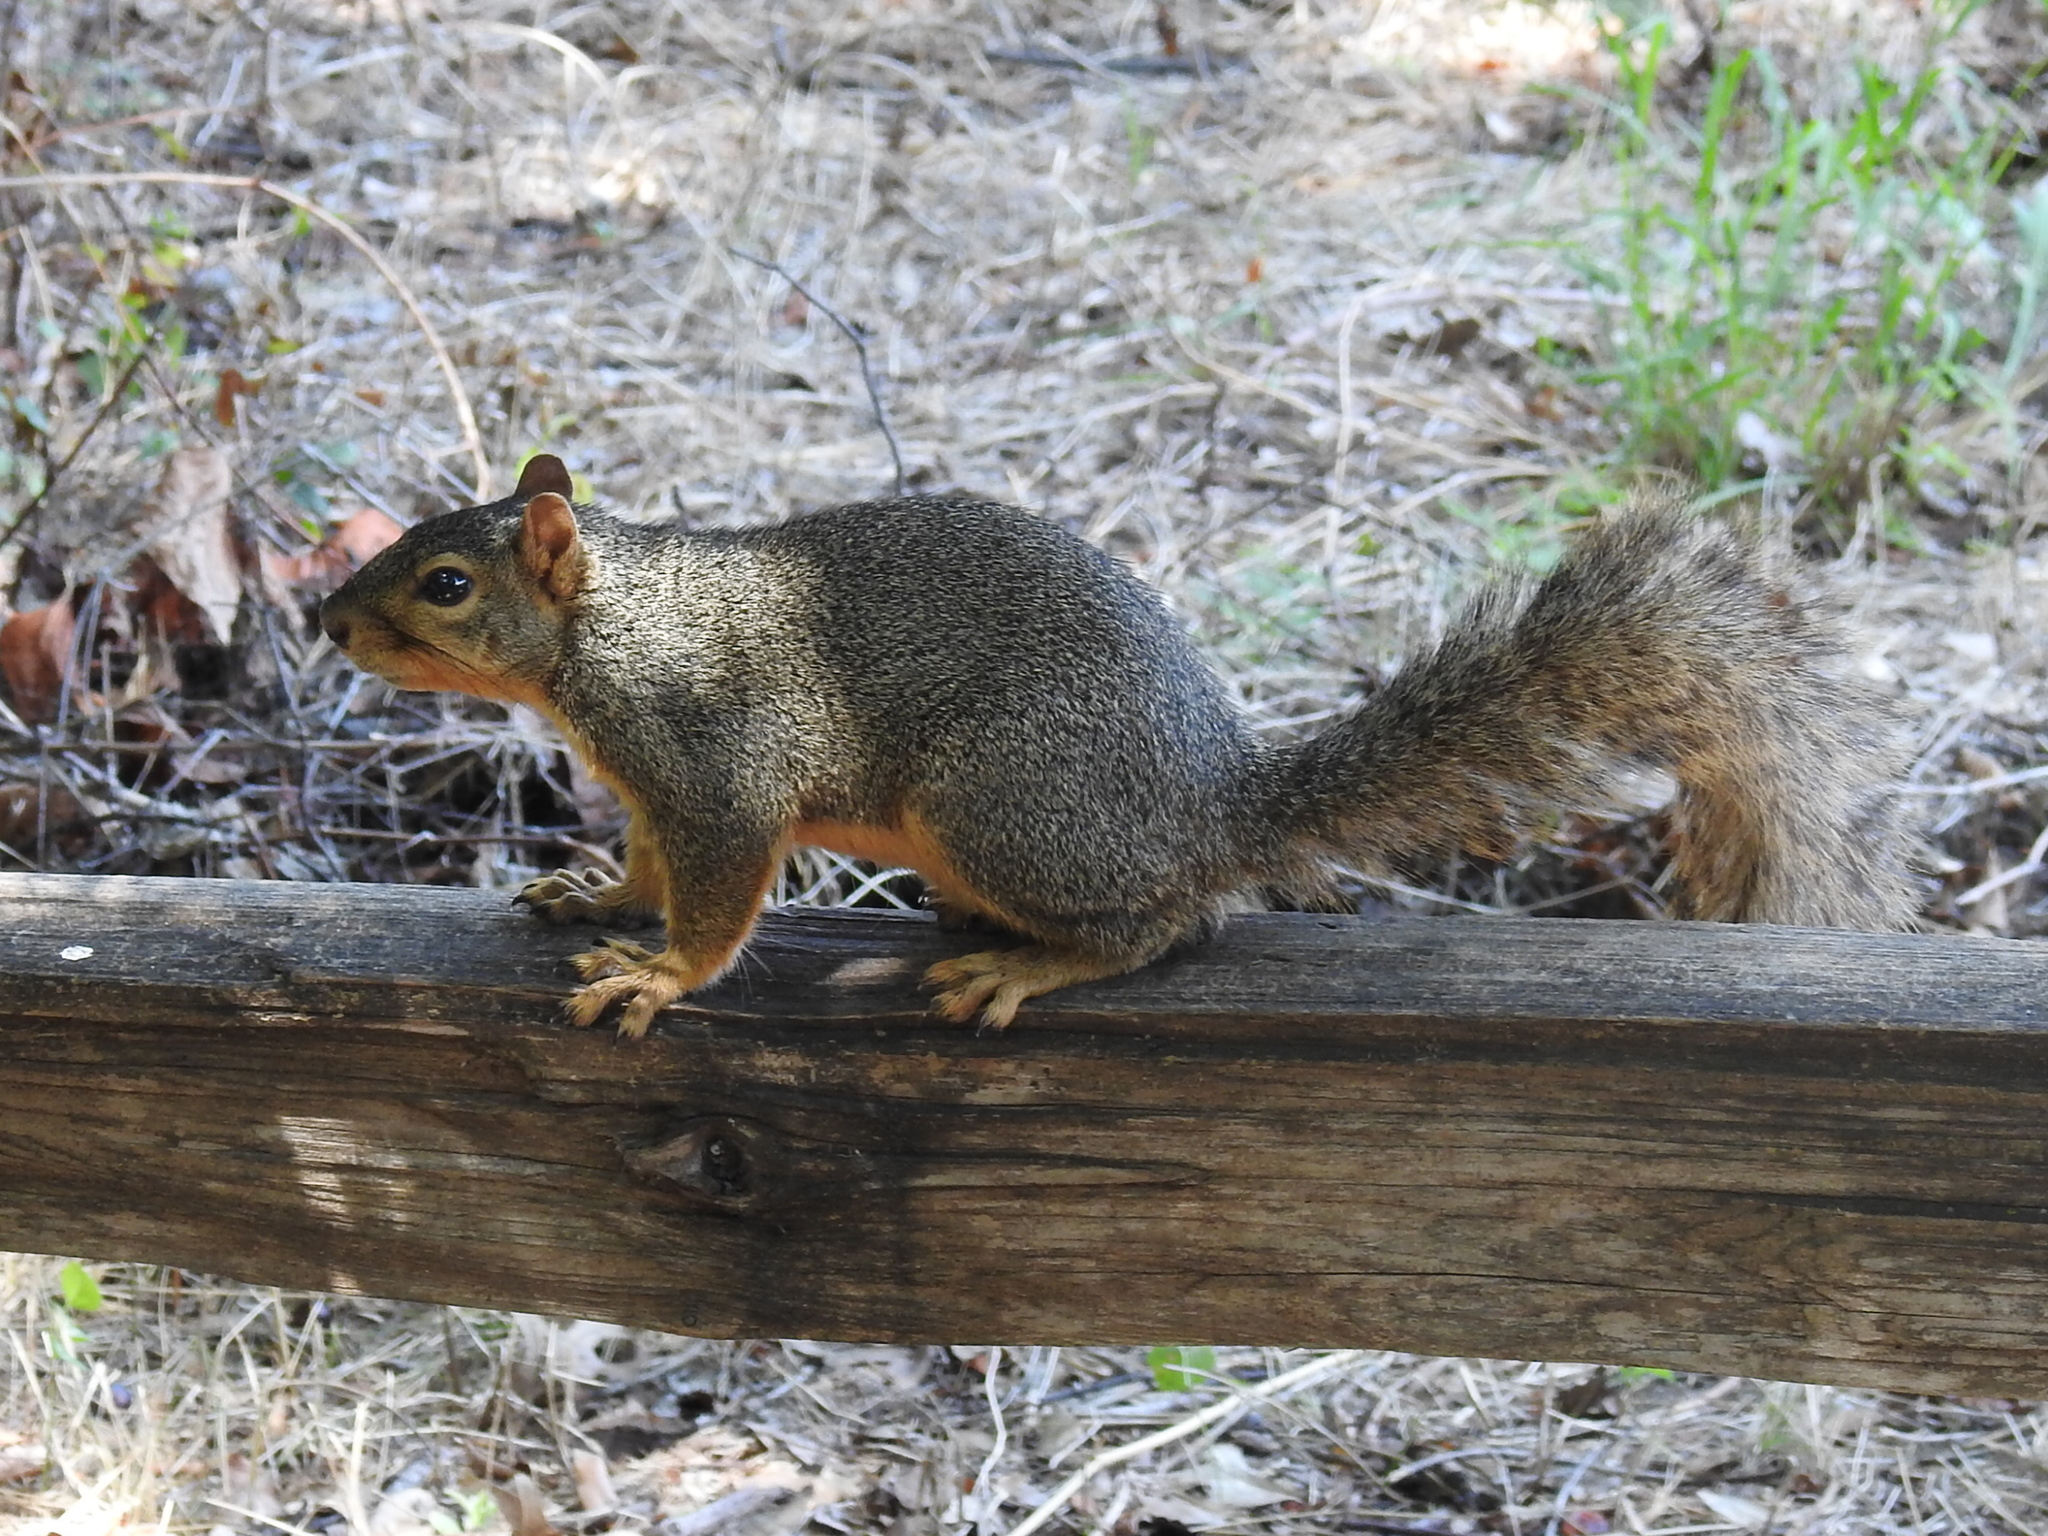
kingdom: Animalia
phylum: Chordata
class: Mammalia
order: Rodentia
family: Sciuridae
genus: Sciurus
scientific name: Sciurus niger
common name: Fox squirrel
